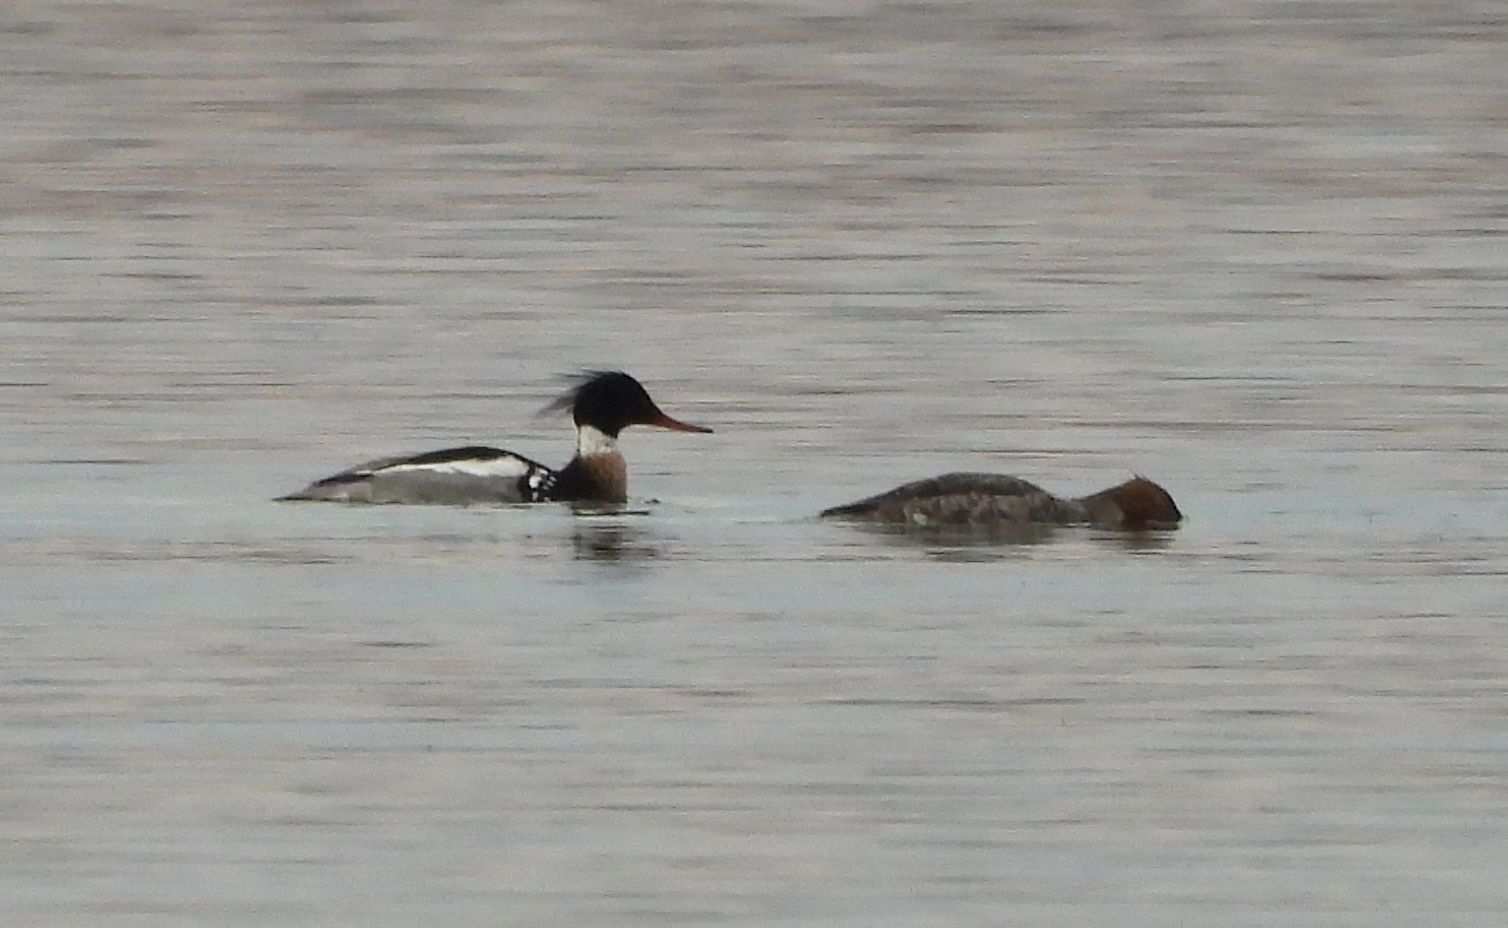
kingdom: Animalia
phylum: Chordata
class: Aves
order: Anseriformes
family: Anatidae
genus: Mergus
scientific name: Mergus serrator
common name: Red-breasted merganser
